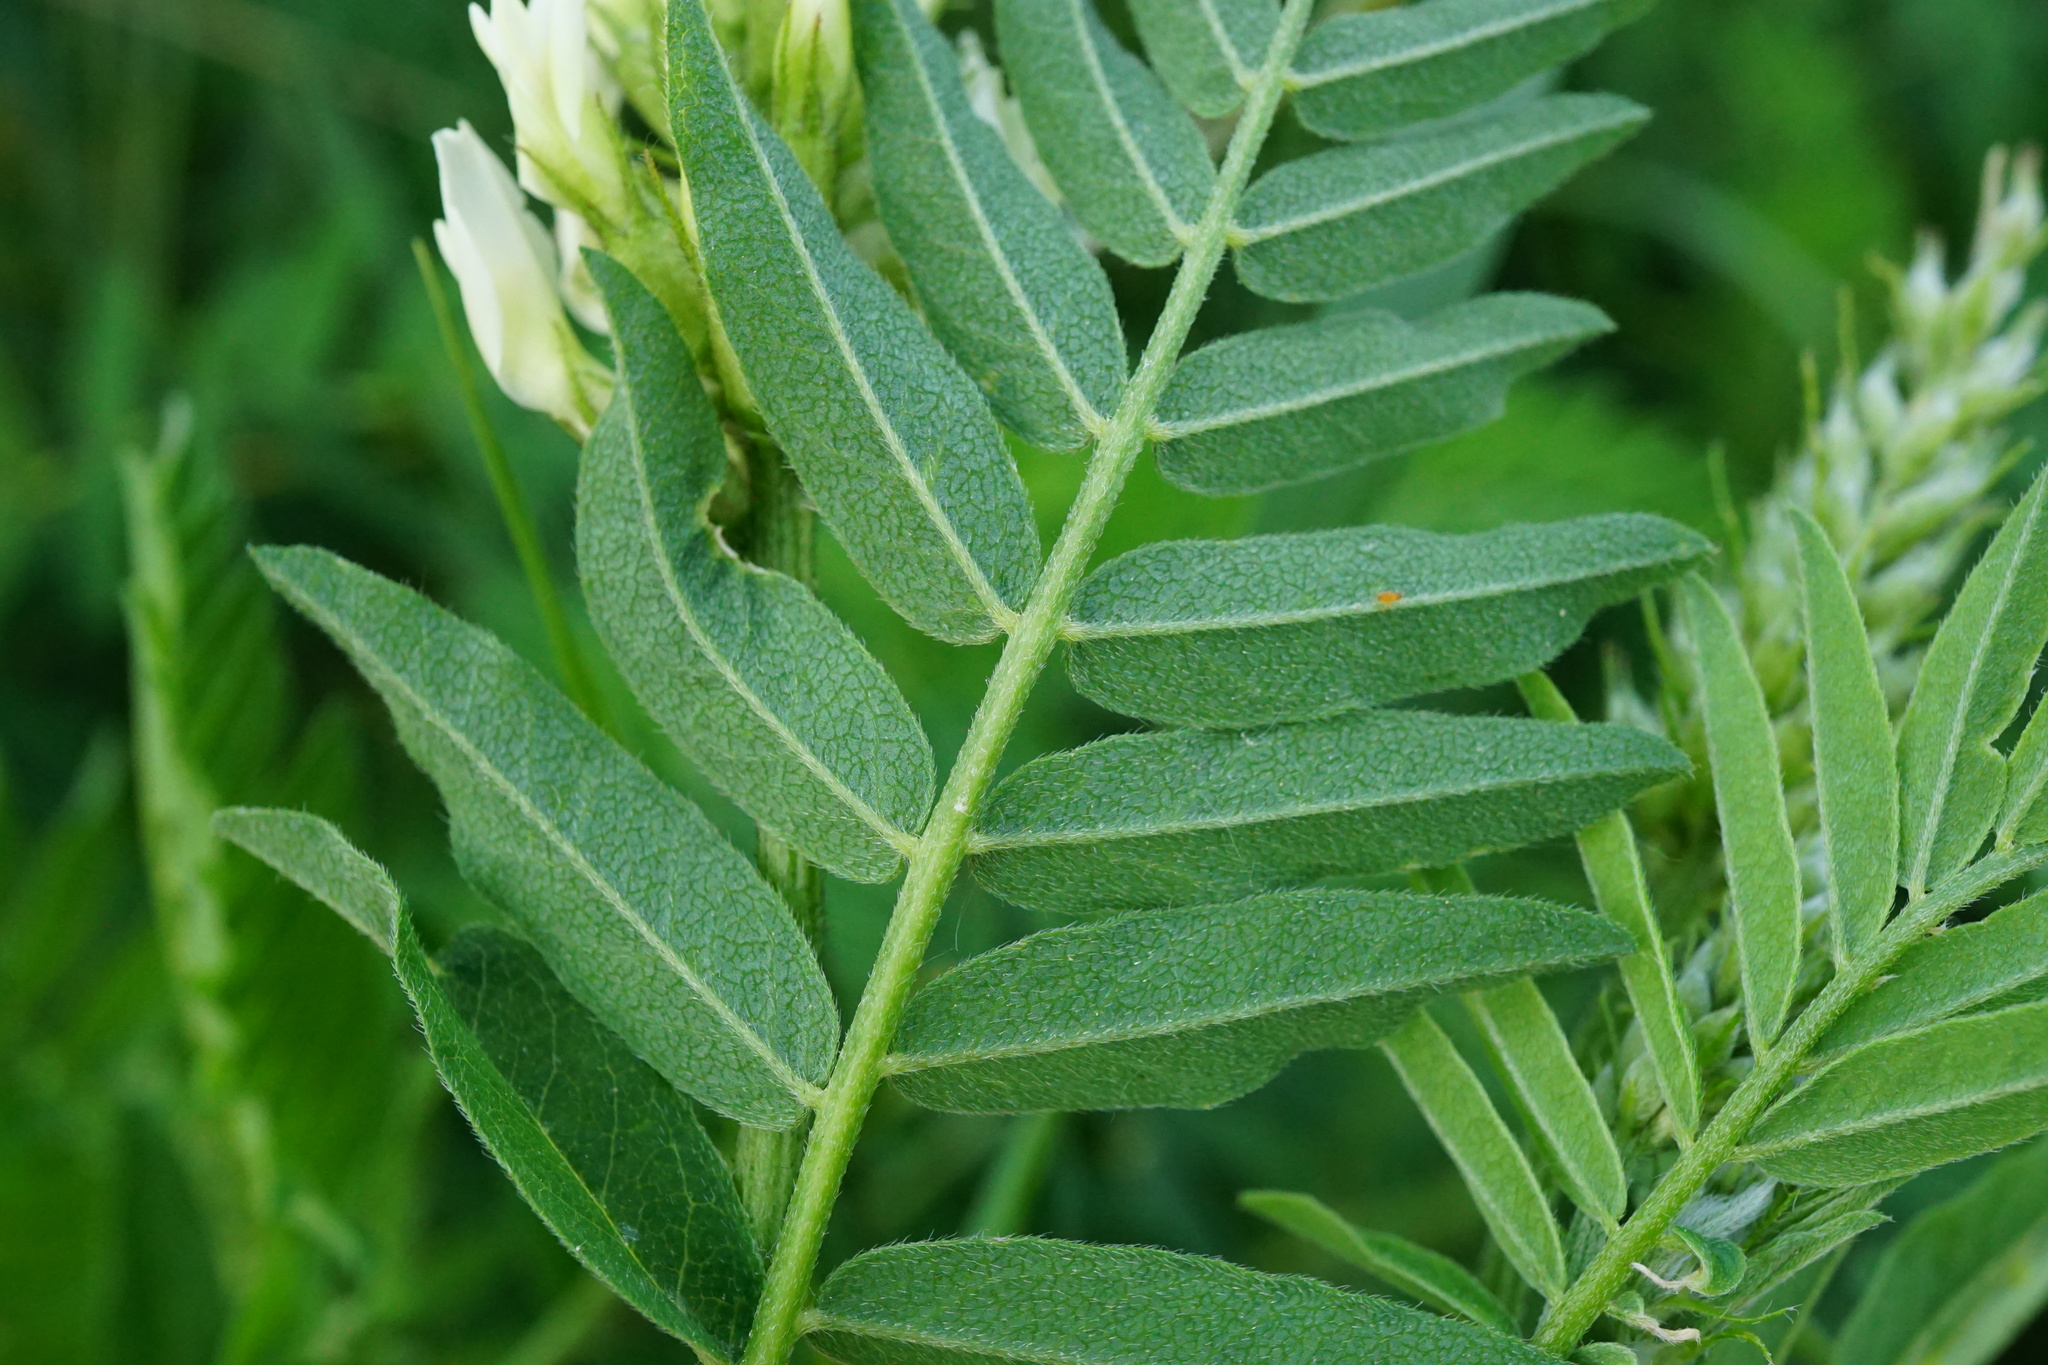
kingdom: Plantae
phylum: Tracheophyta
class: Magnoliopsida
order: Fabales
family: Fabaceae
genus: Astragalus
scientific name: Astragalus cicer
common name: Chick-pea milk-vetch
